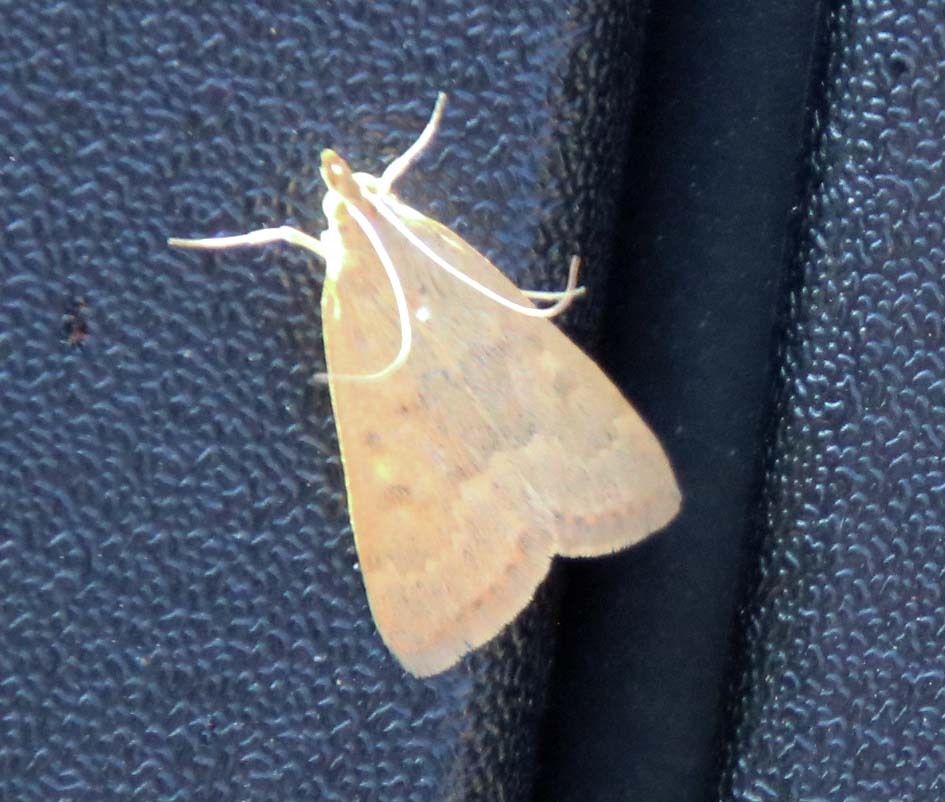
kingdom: Animalia
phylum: Arthropoda
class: Insecta
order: Lepidoptera
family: Crambidae
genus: Achyra
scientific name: Achyra rantalis
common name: Garden webworm
